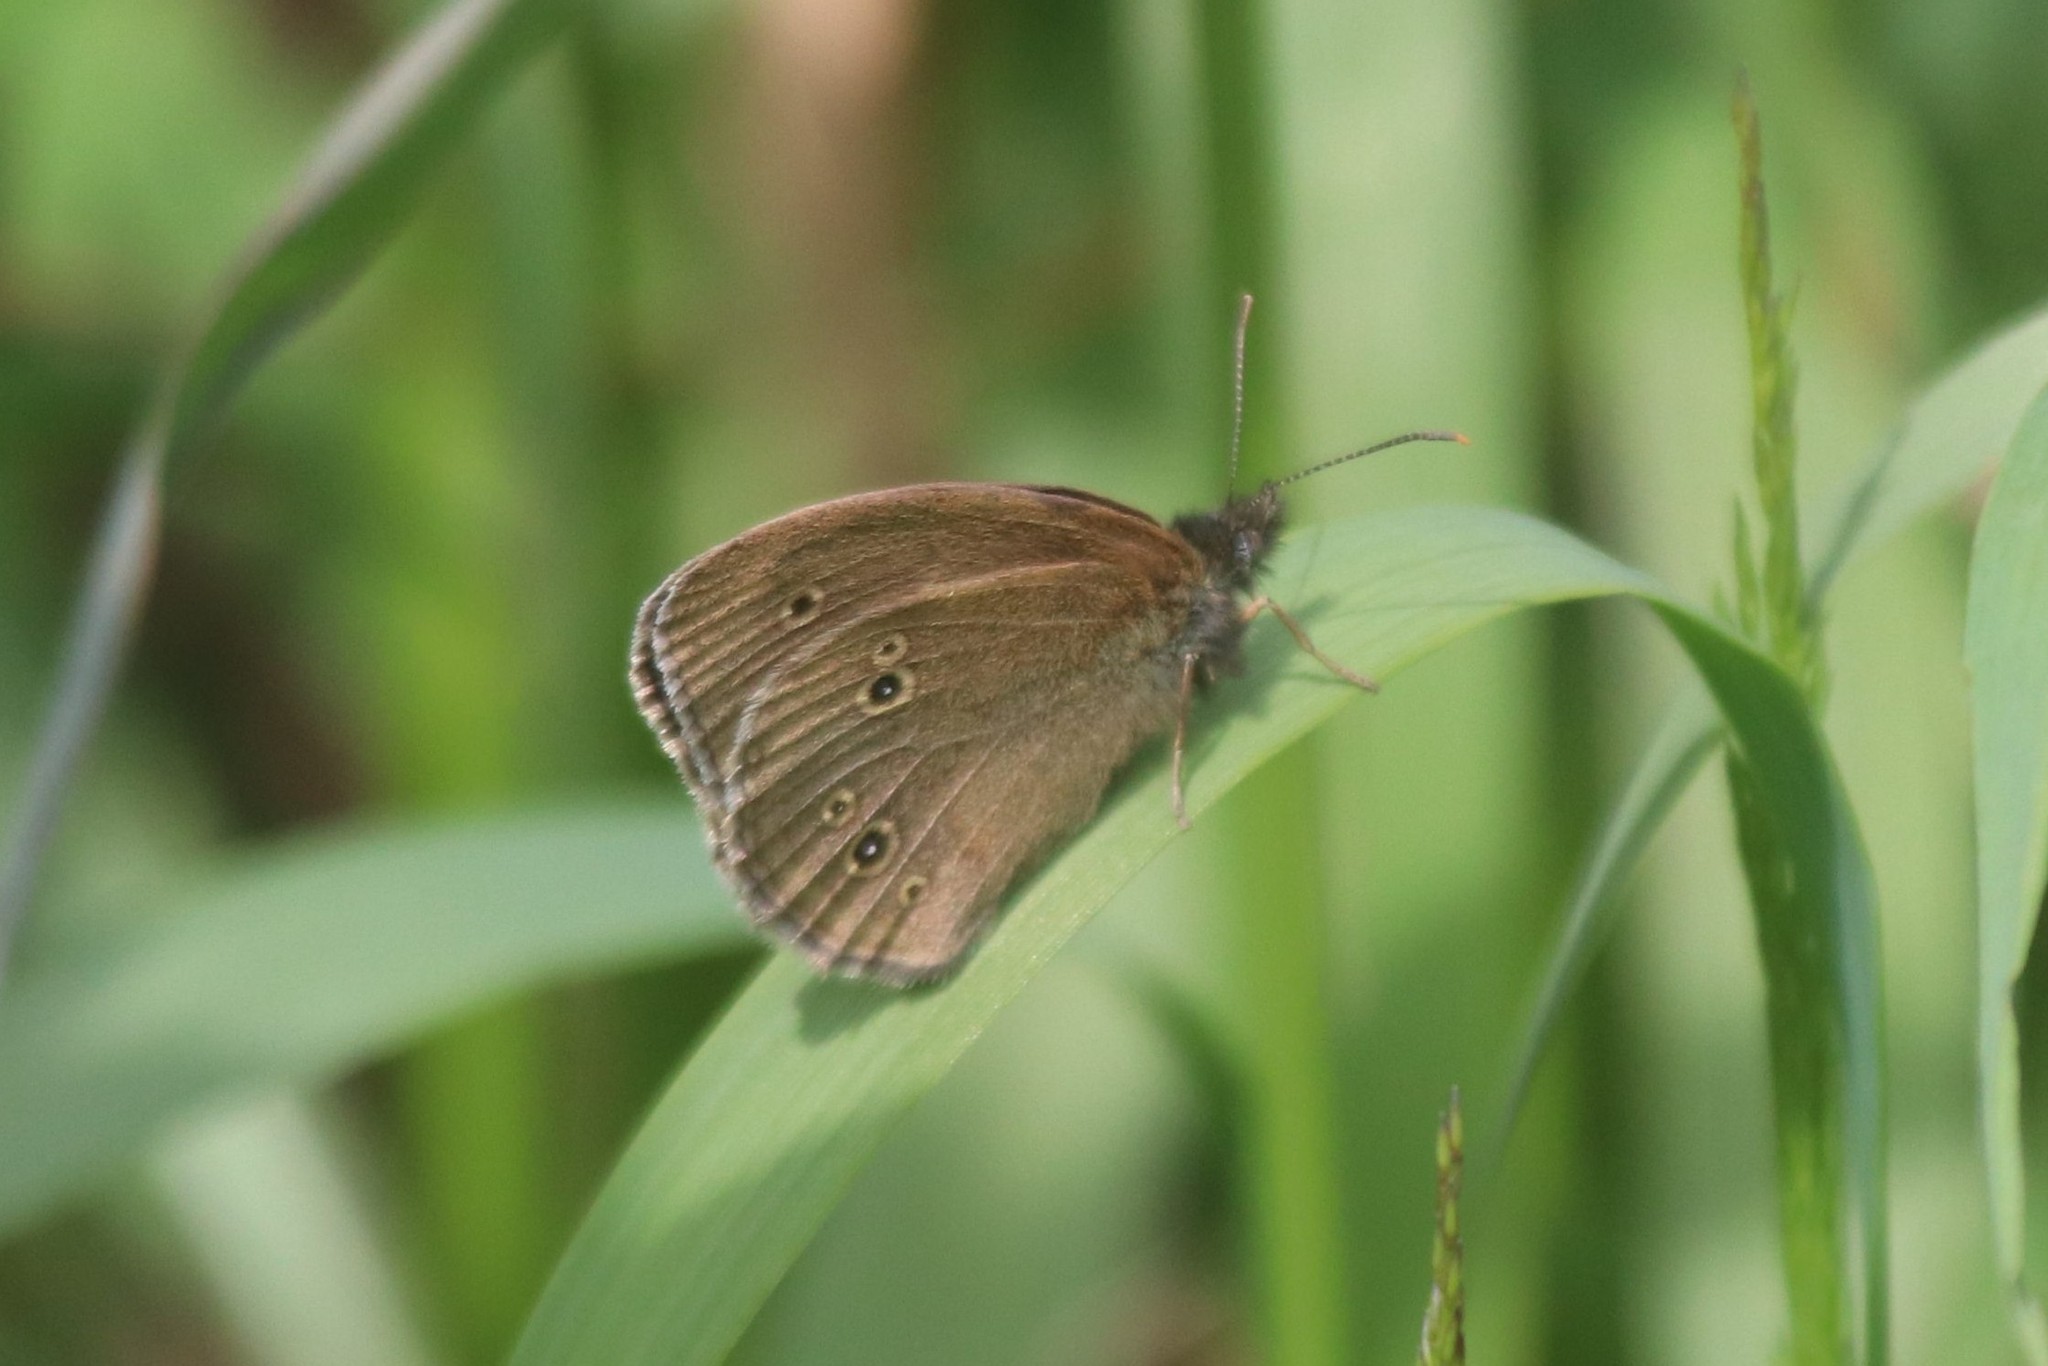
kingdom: Animalia
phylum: Arthropoda
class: Insecta
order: Lepidoptera
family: Nymphalidae
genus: Aphantopus
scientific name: Aphantopus hyperantus
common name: Ringlet
